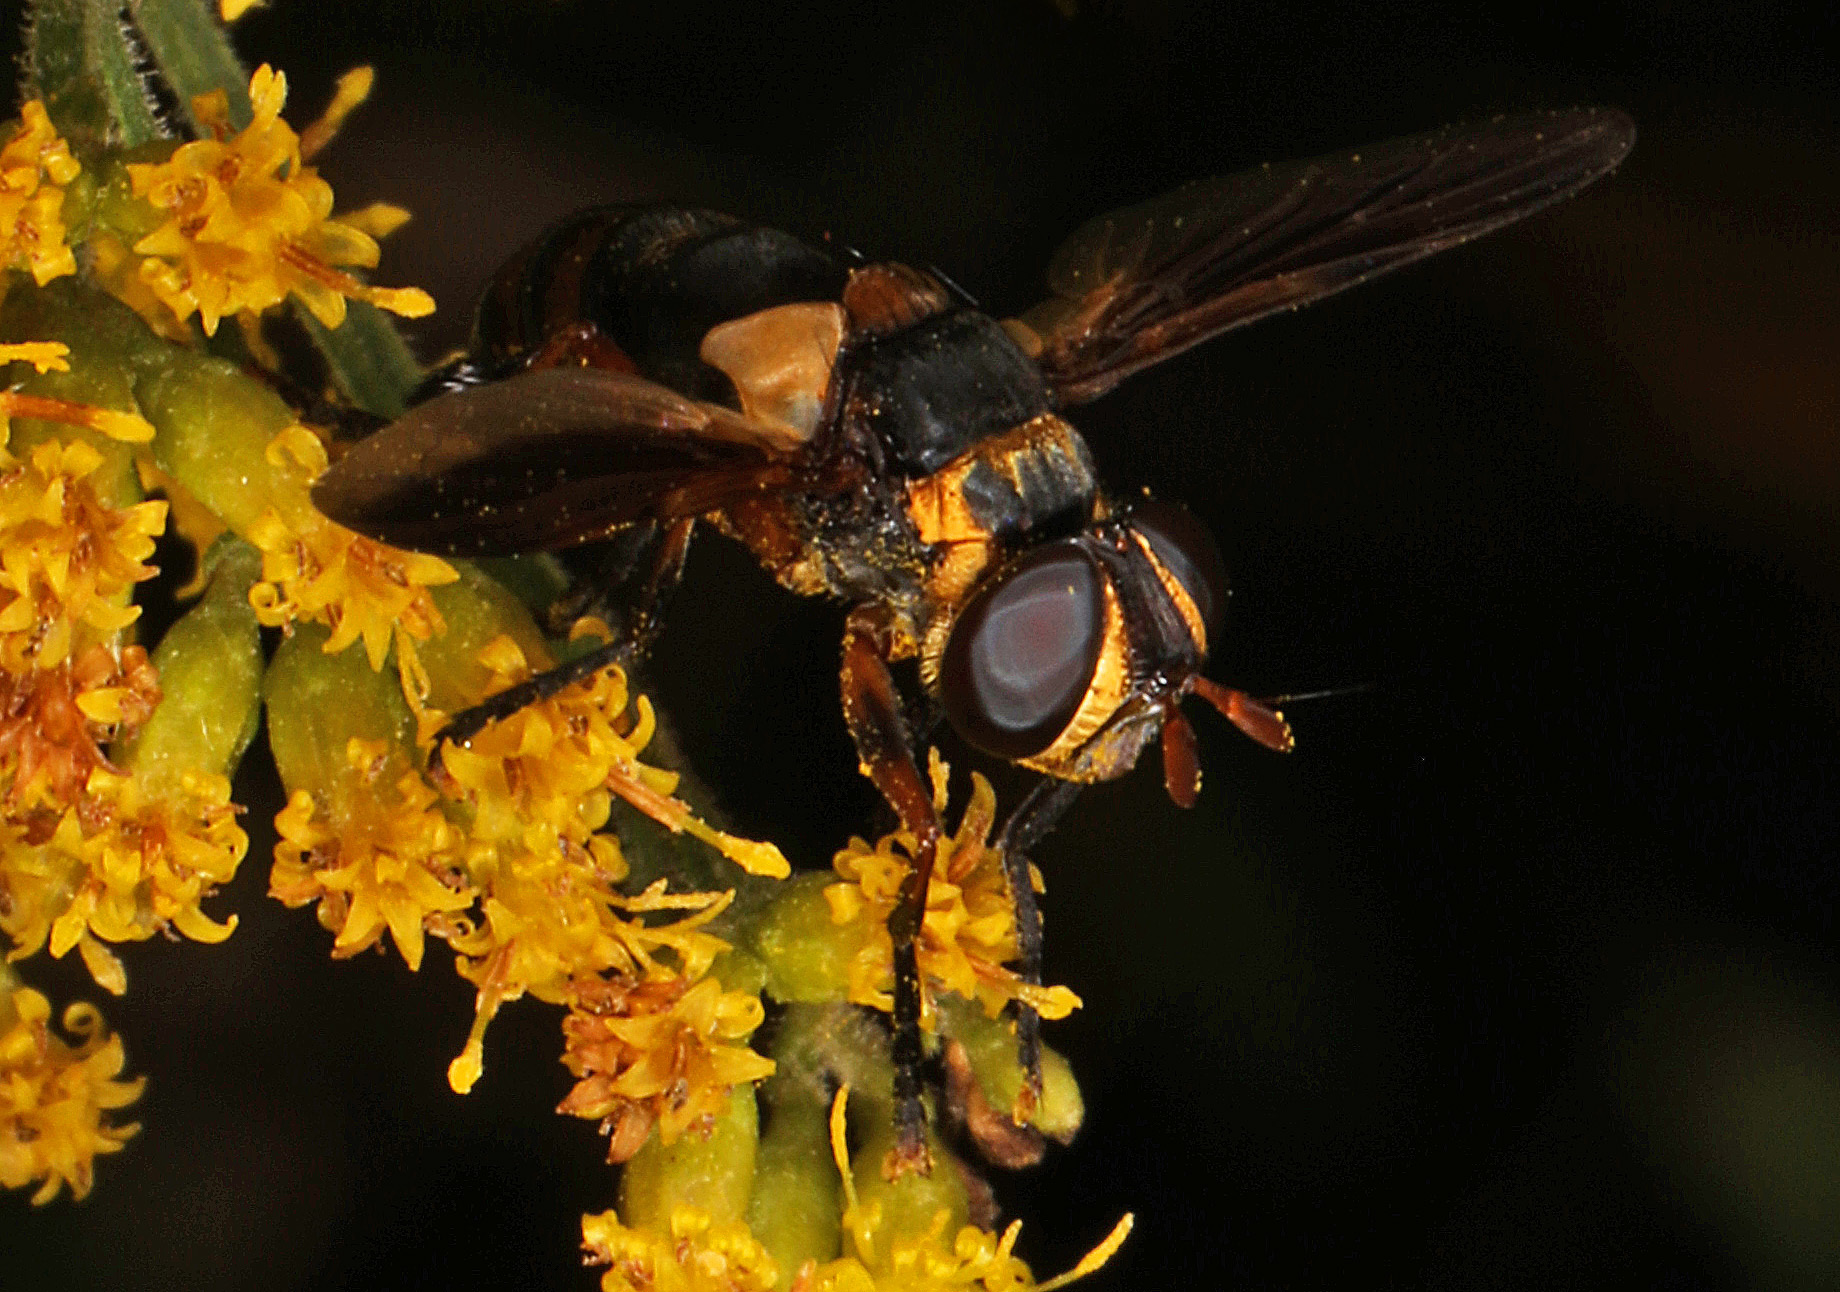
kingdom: Animalia
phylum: Arthropoda
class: Insecta
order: Diptera
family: Tachinidae
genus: Trichopoda
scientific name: Trichopoda plumipes
